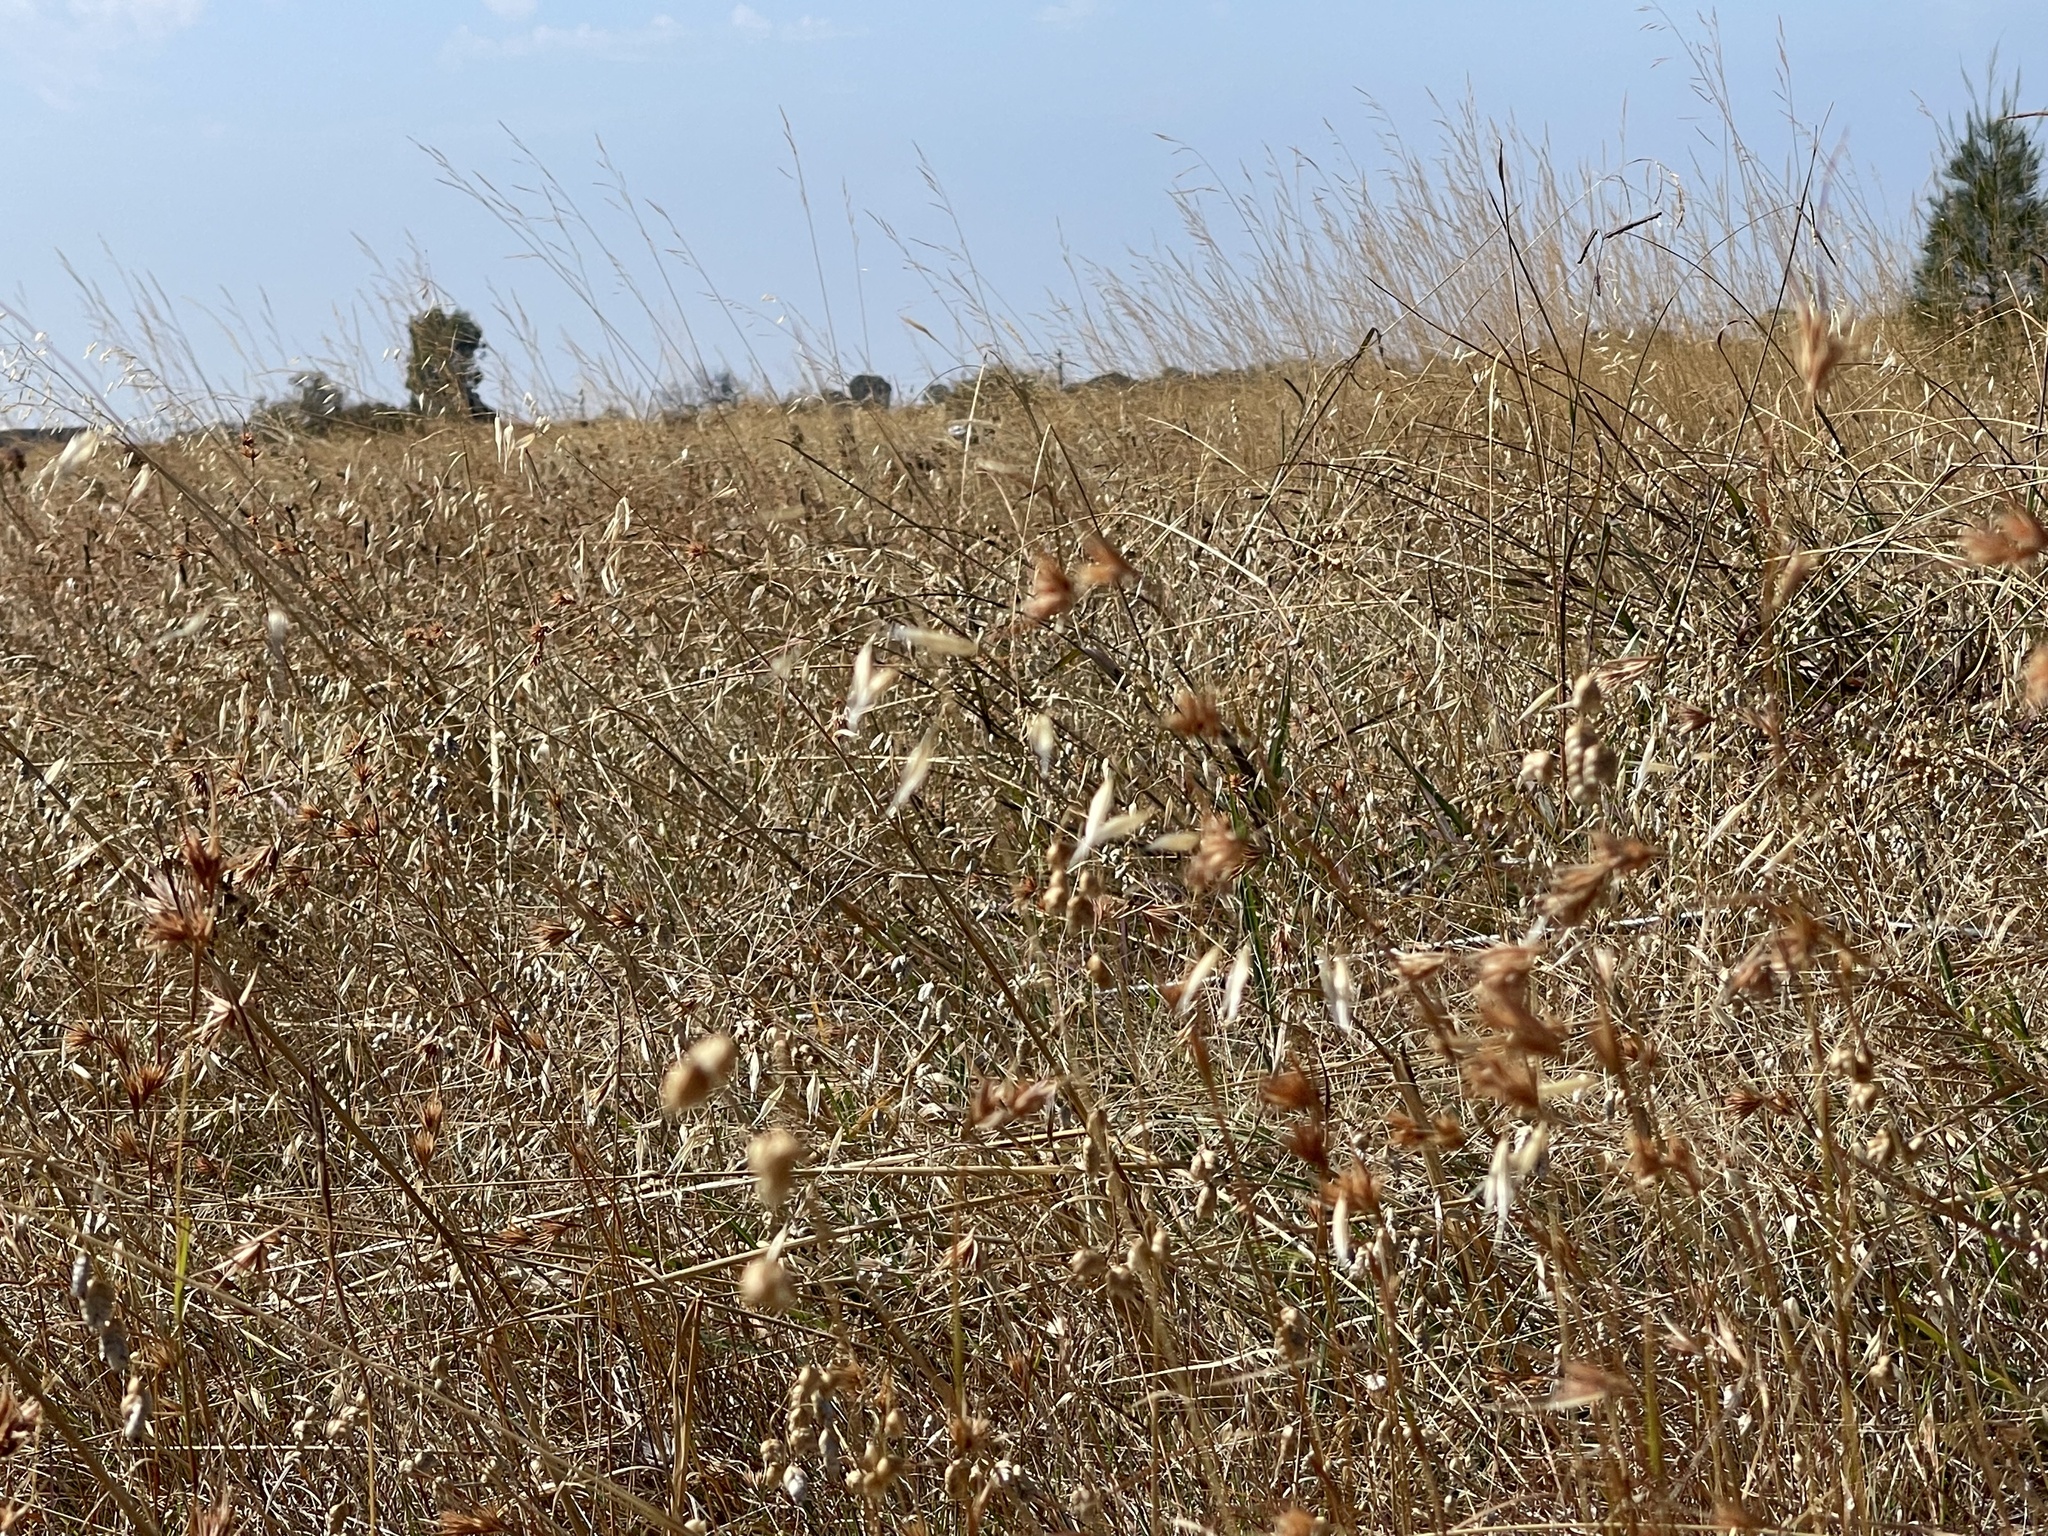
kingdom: Plantae
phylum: Tracheophyta
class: Liliopsida
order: Poales
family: Poaceae
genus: Themeda
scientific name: Themeda triandra
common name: Kangaroo grass
